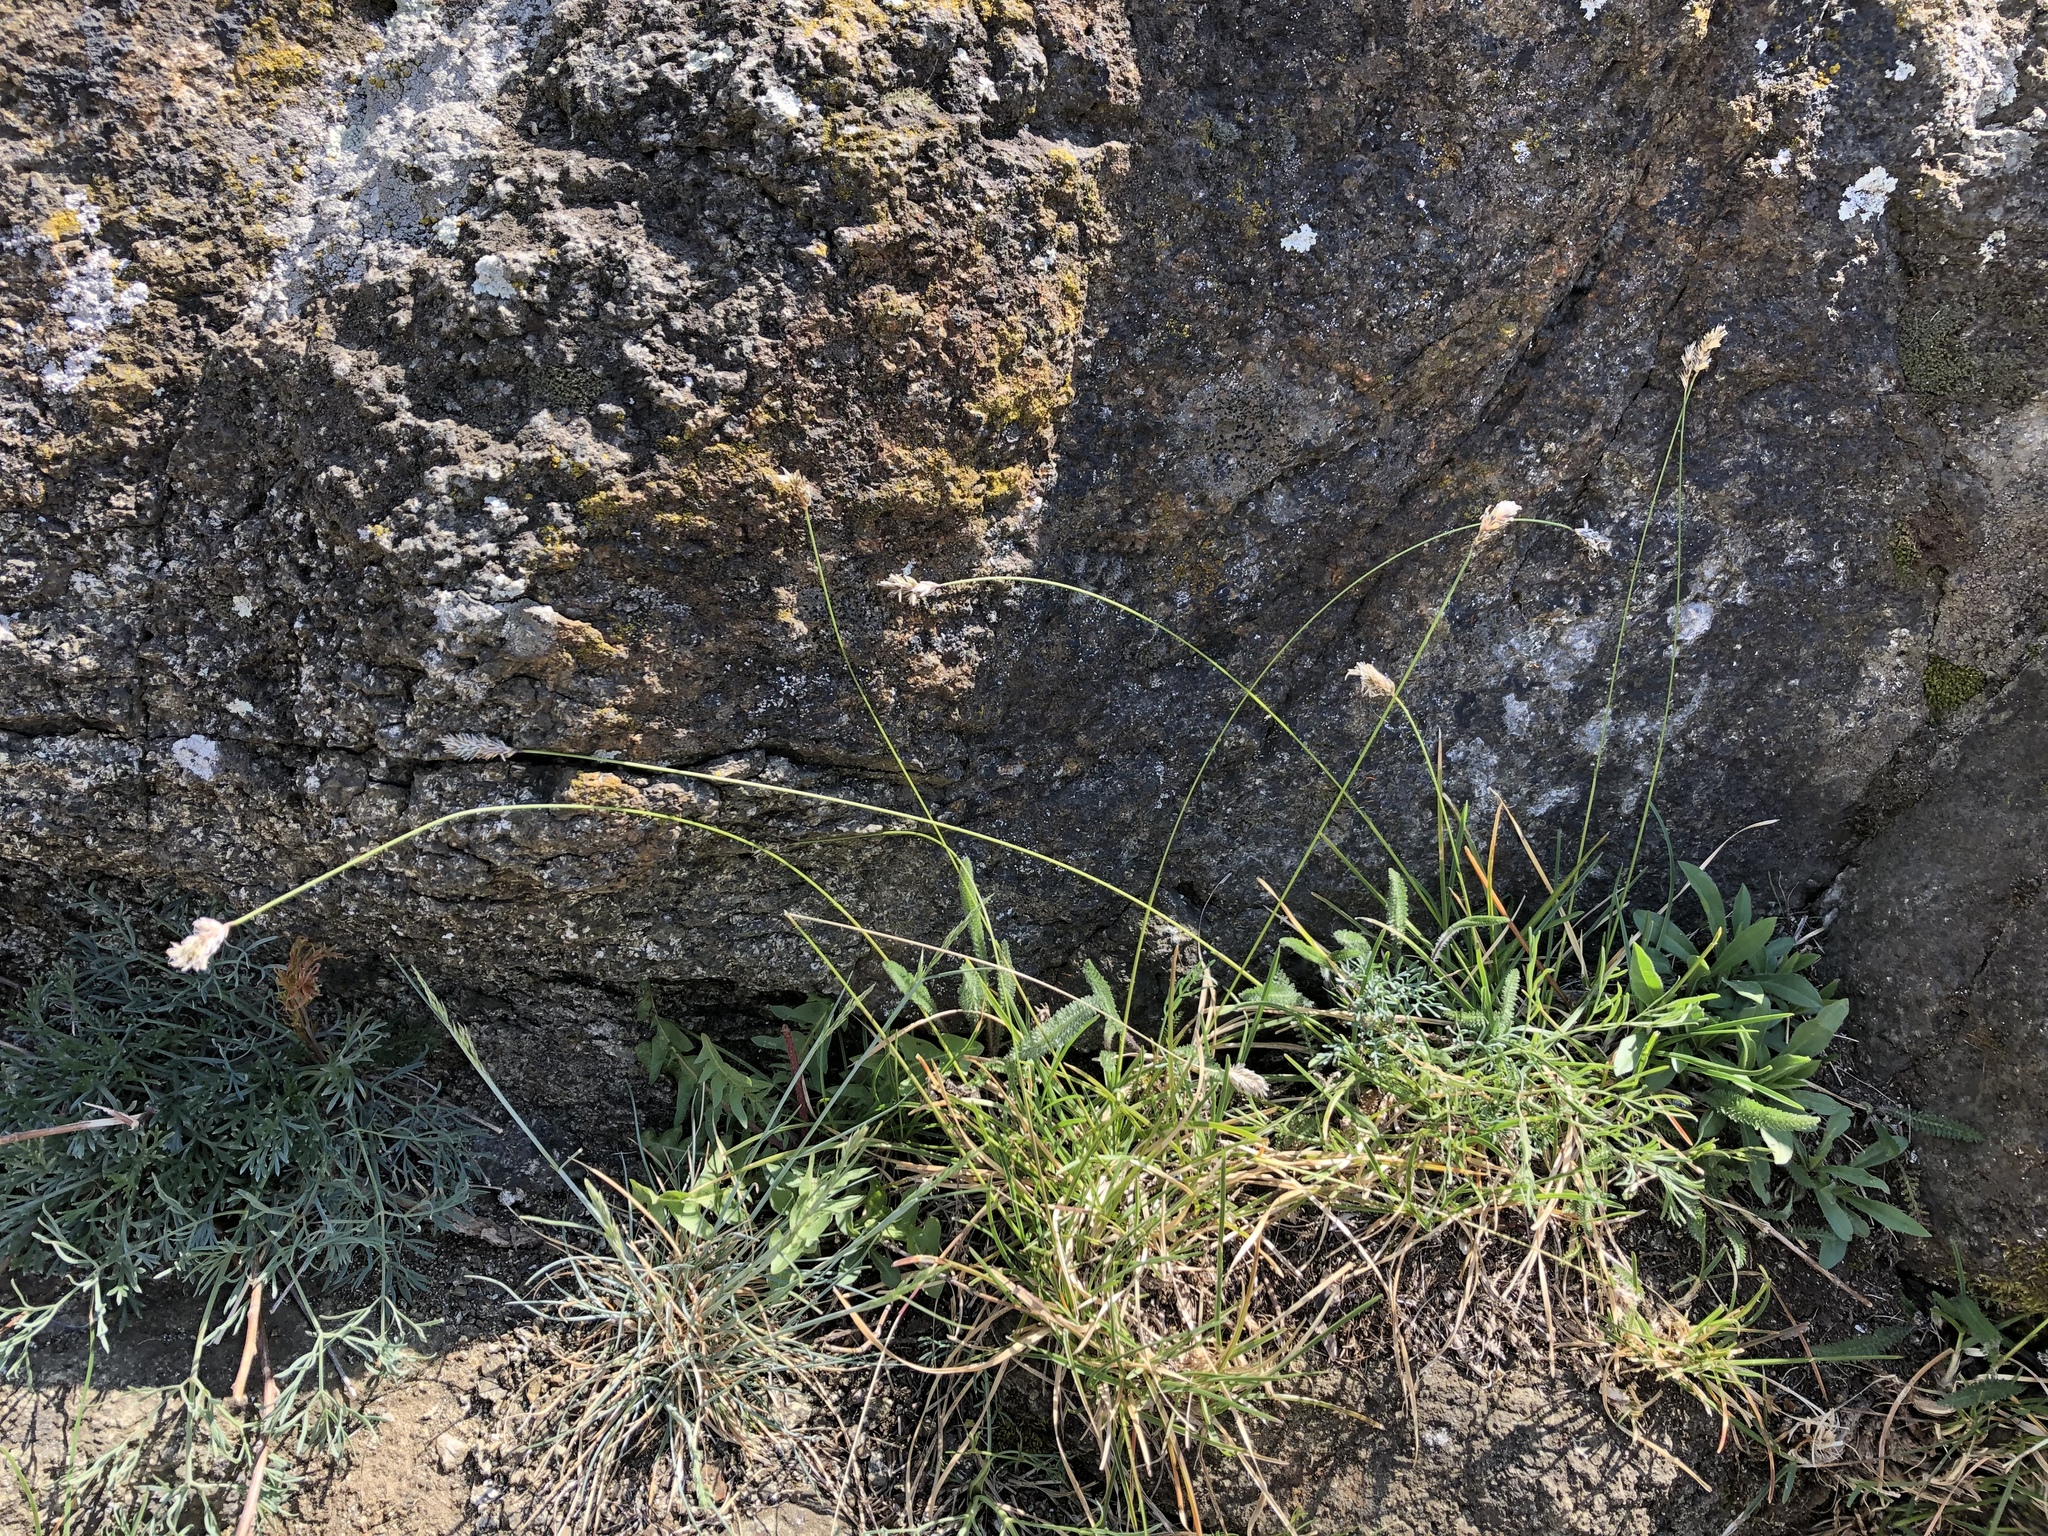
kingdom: Plantae
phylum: Tracheophyta
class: Liliopsida
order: Poales
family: Poaceae
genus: Sesleria
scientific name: Sesleria caerulea
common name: Blue moor-grass
